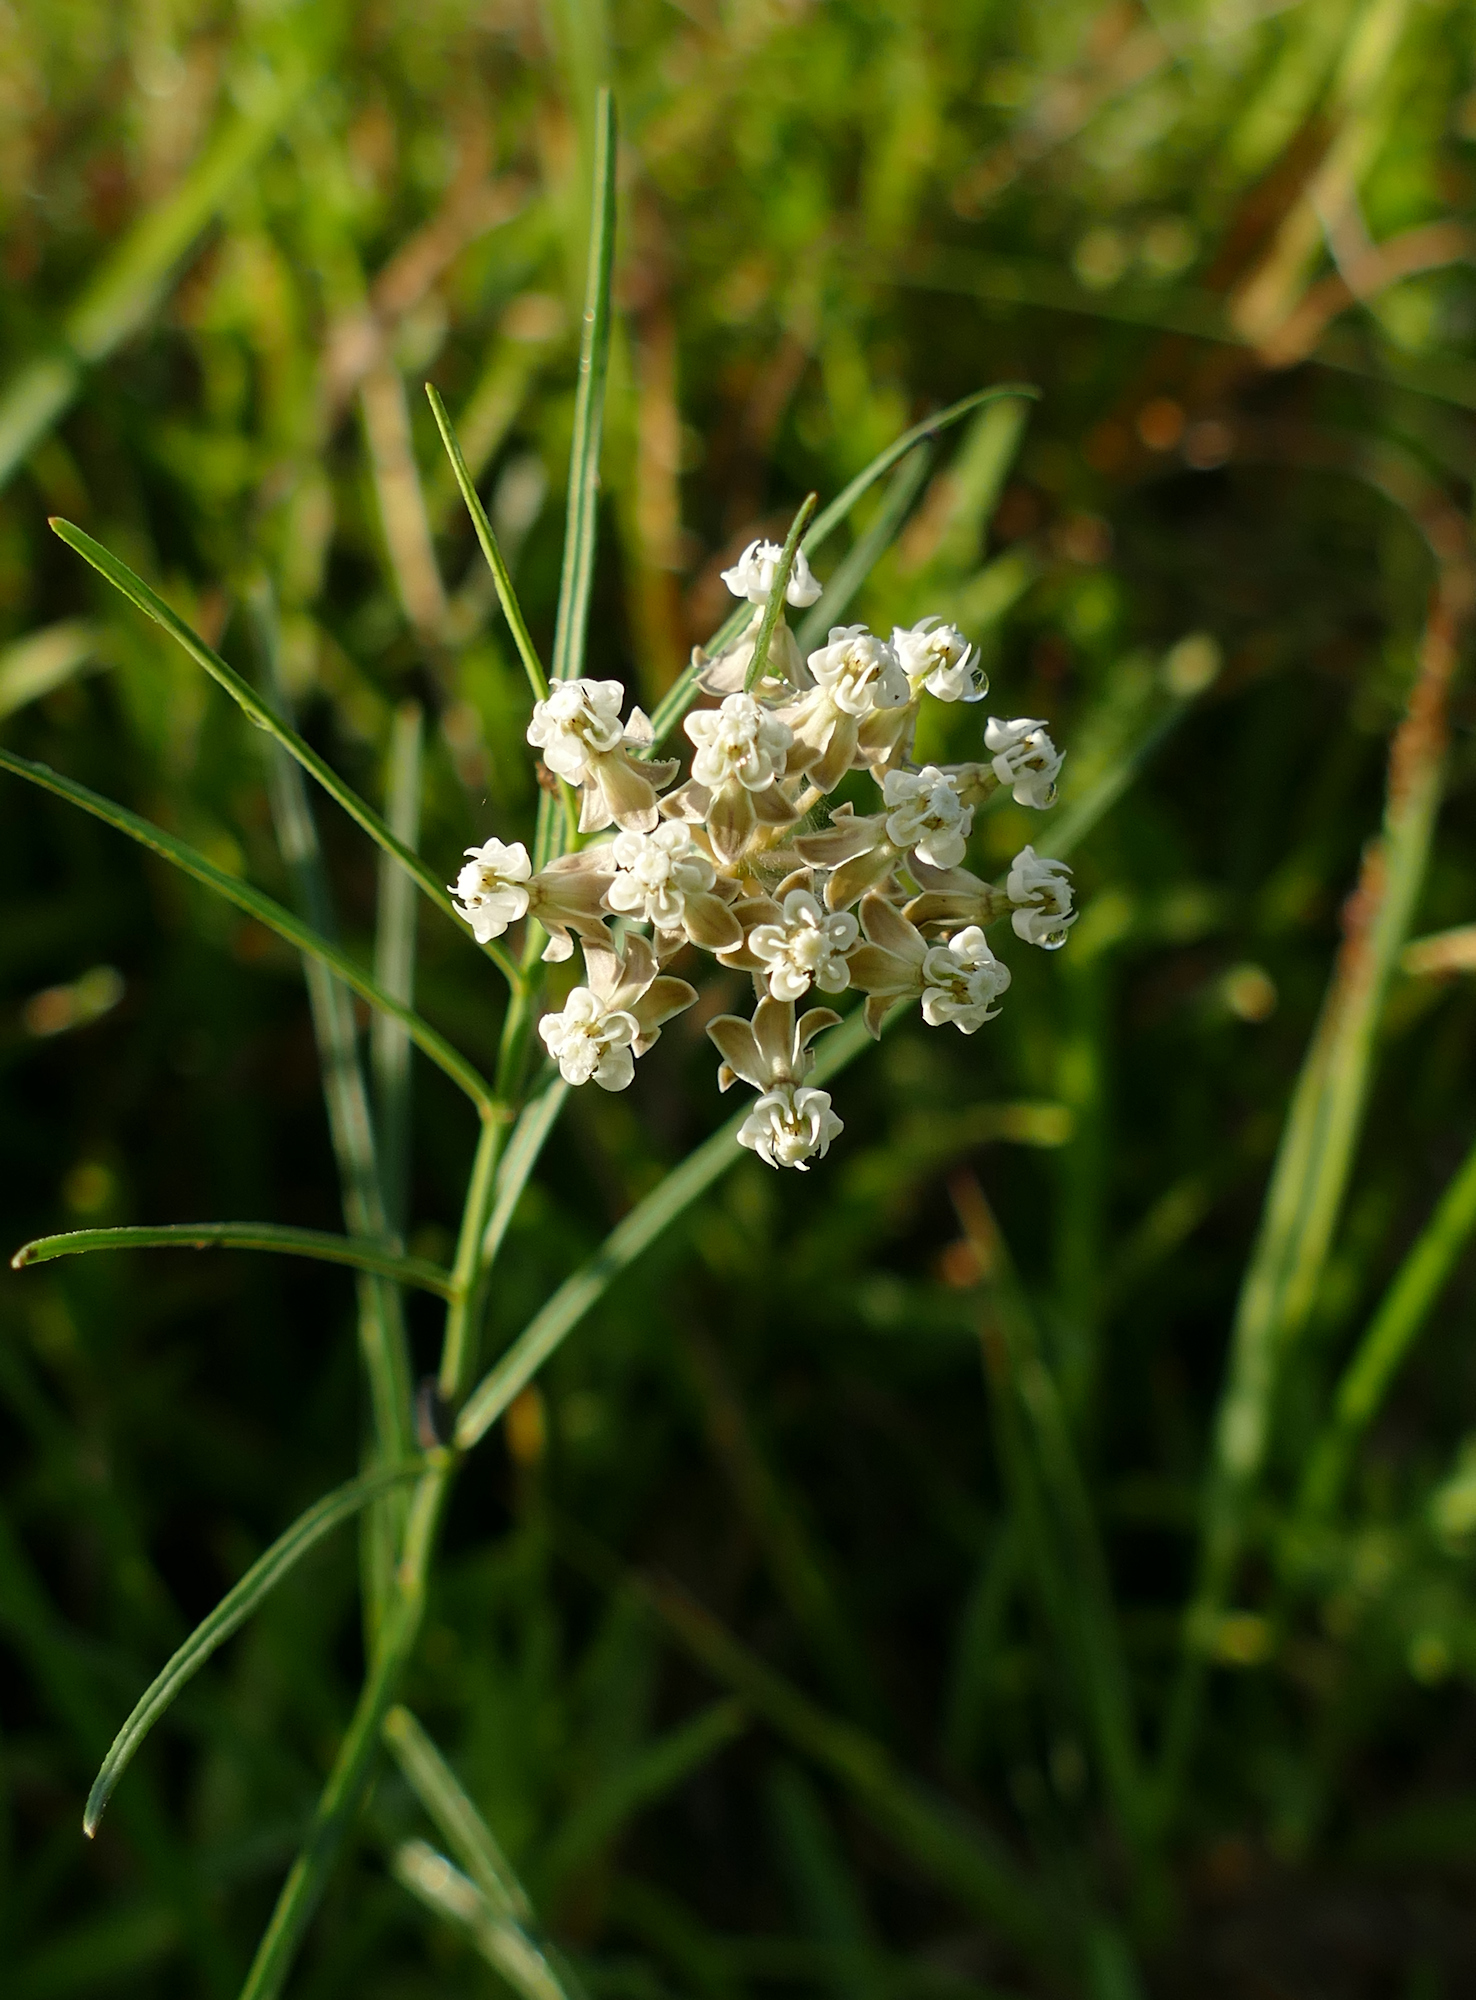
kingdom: Plantae
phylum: Tracheophyta
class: Magnoliopsida
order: Gentianales
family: Apocynaceae
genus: Asclepias
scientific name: Asclepias linearis
